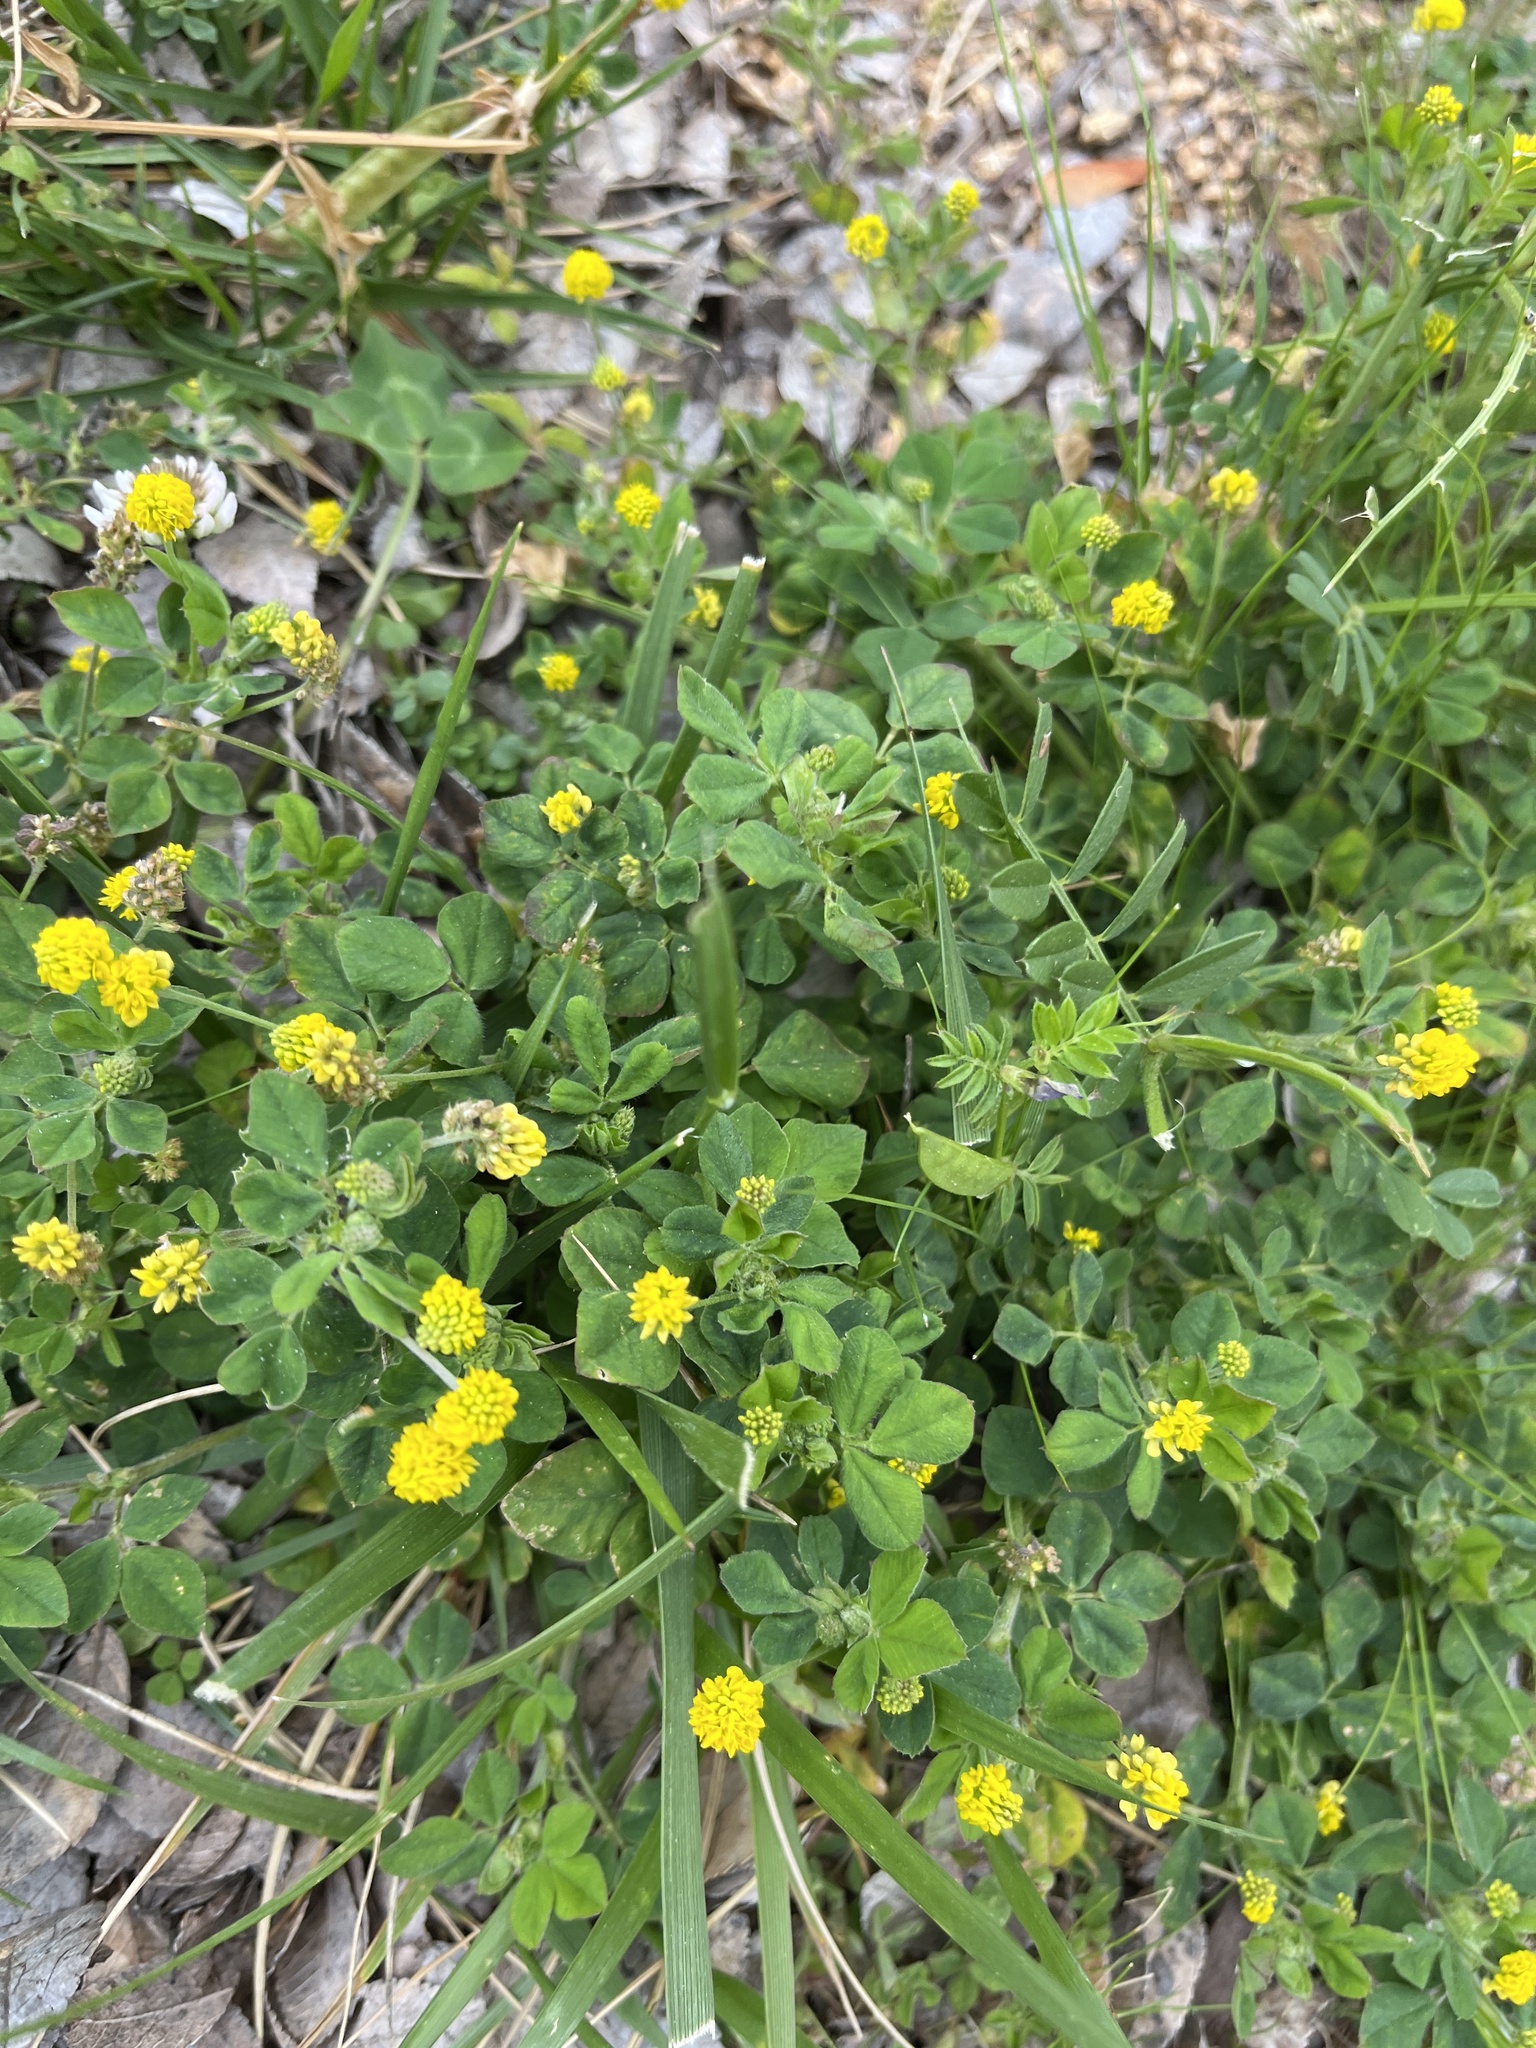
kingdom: Plantae
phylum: Tracheophyta
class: Magnoliopsida
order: Fabales
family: Fabaceae
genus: Medicago
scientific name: Medicago lupulina
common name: Black medick
